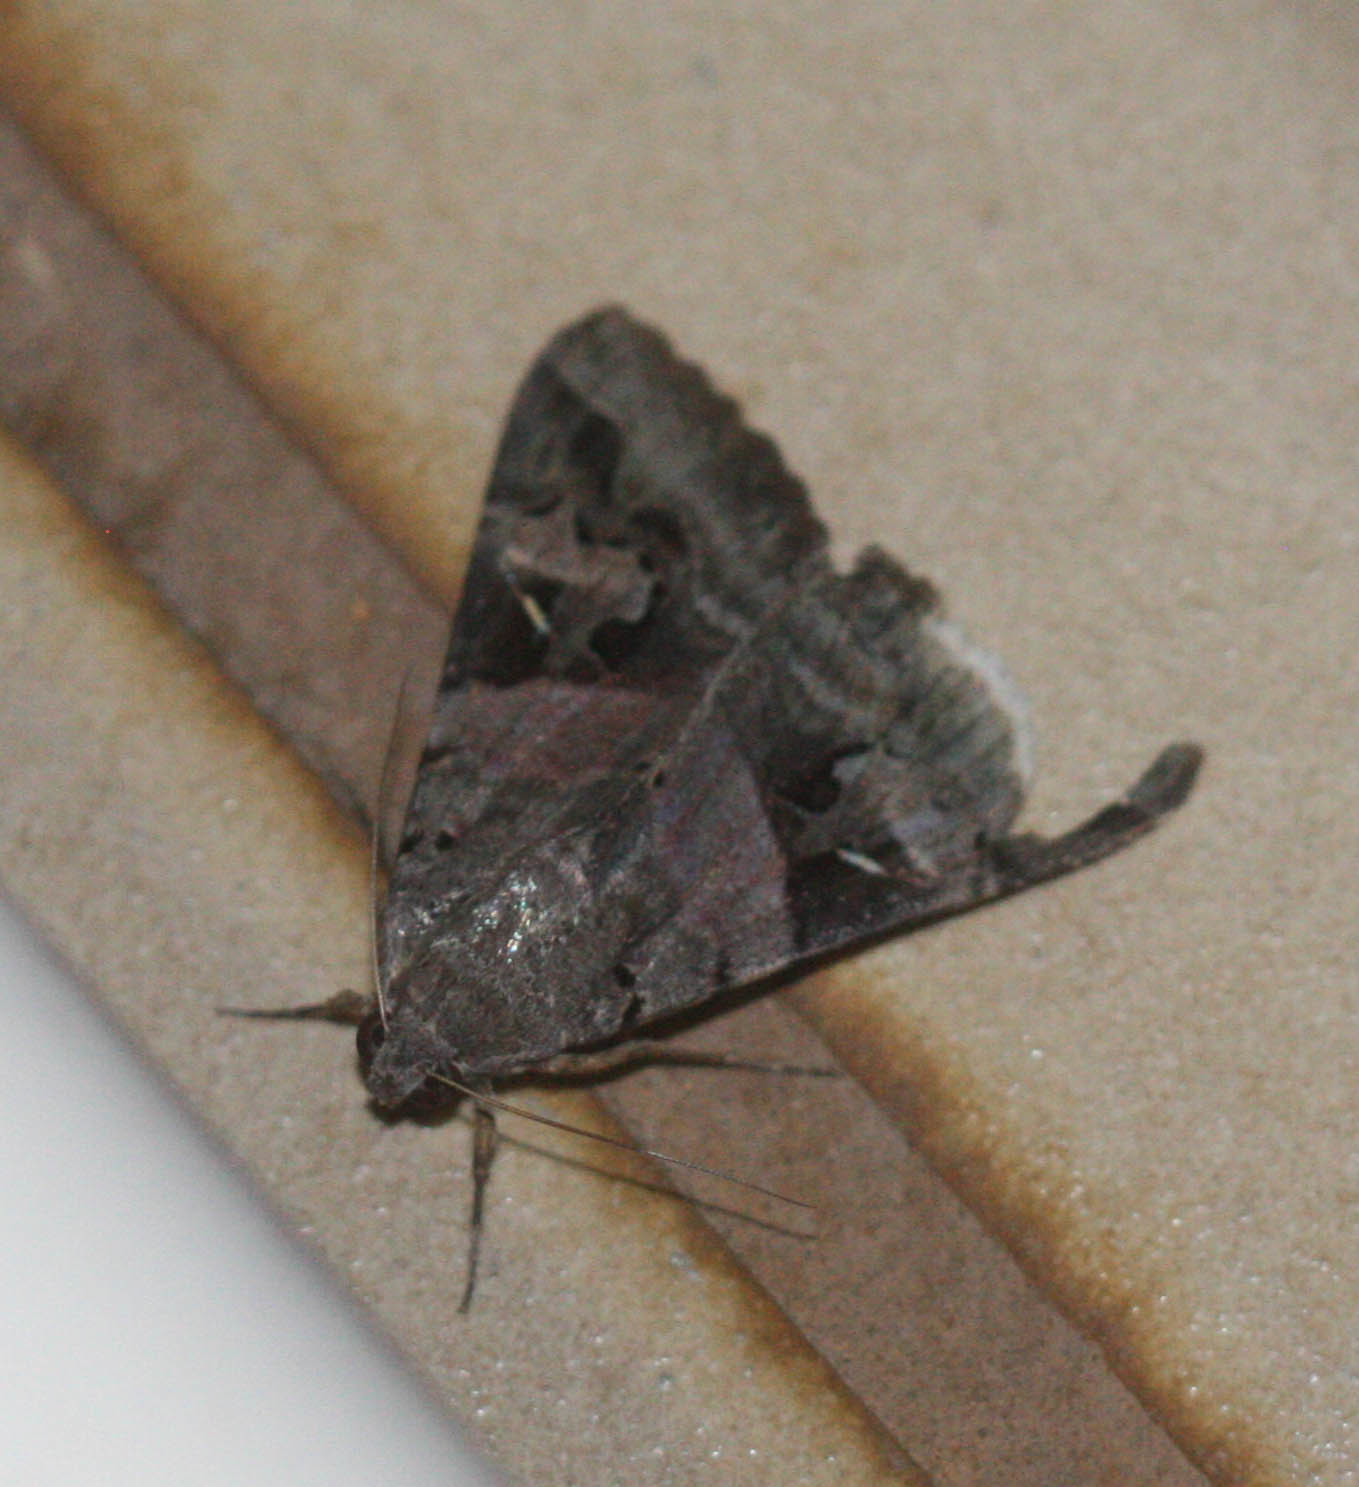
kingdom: Animalia
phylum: Arthropoda
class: Insecta
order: Lepidoptera
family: Erebidae
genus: Melipotis
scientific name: Melipotis indomita
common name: Moth
